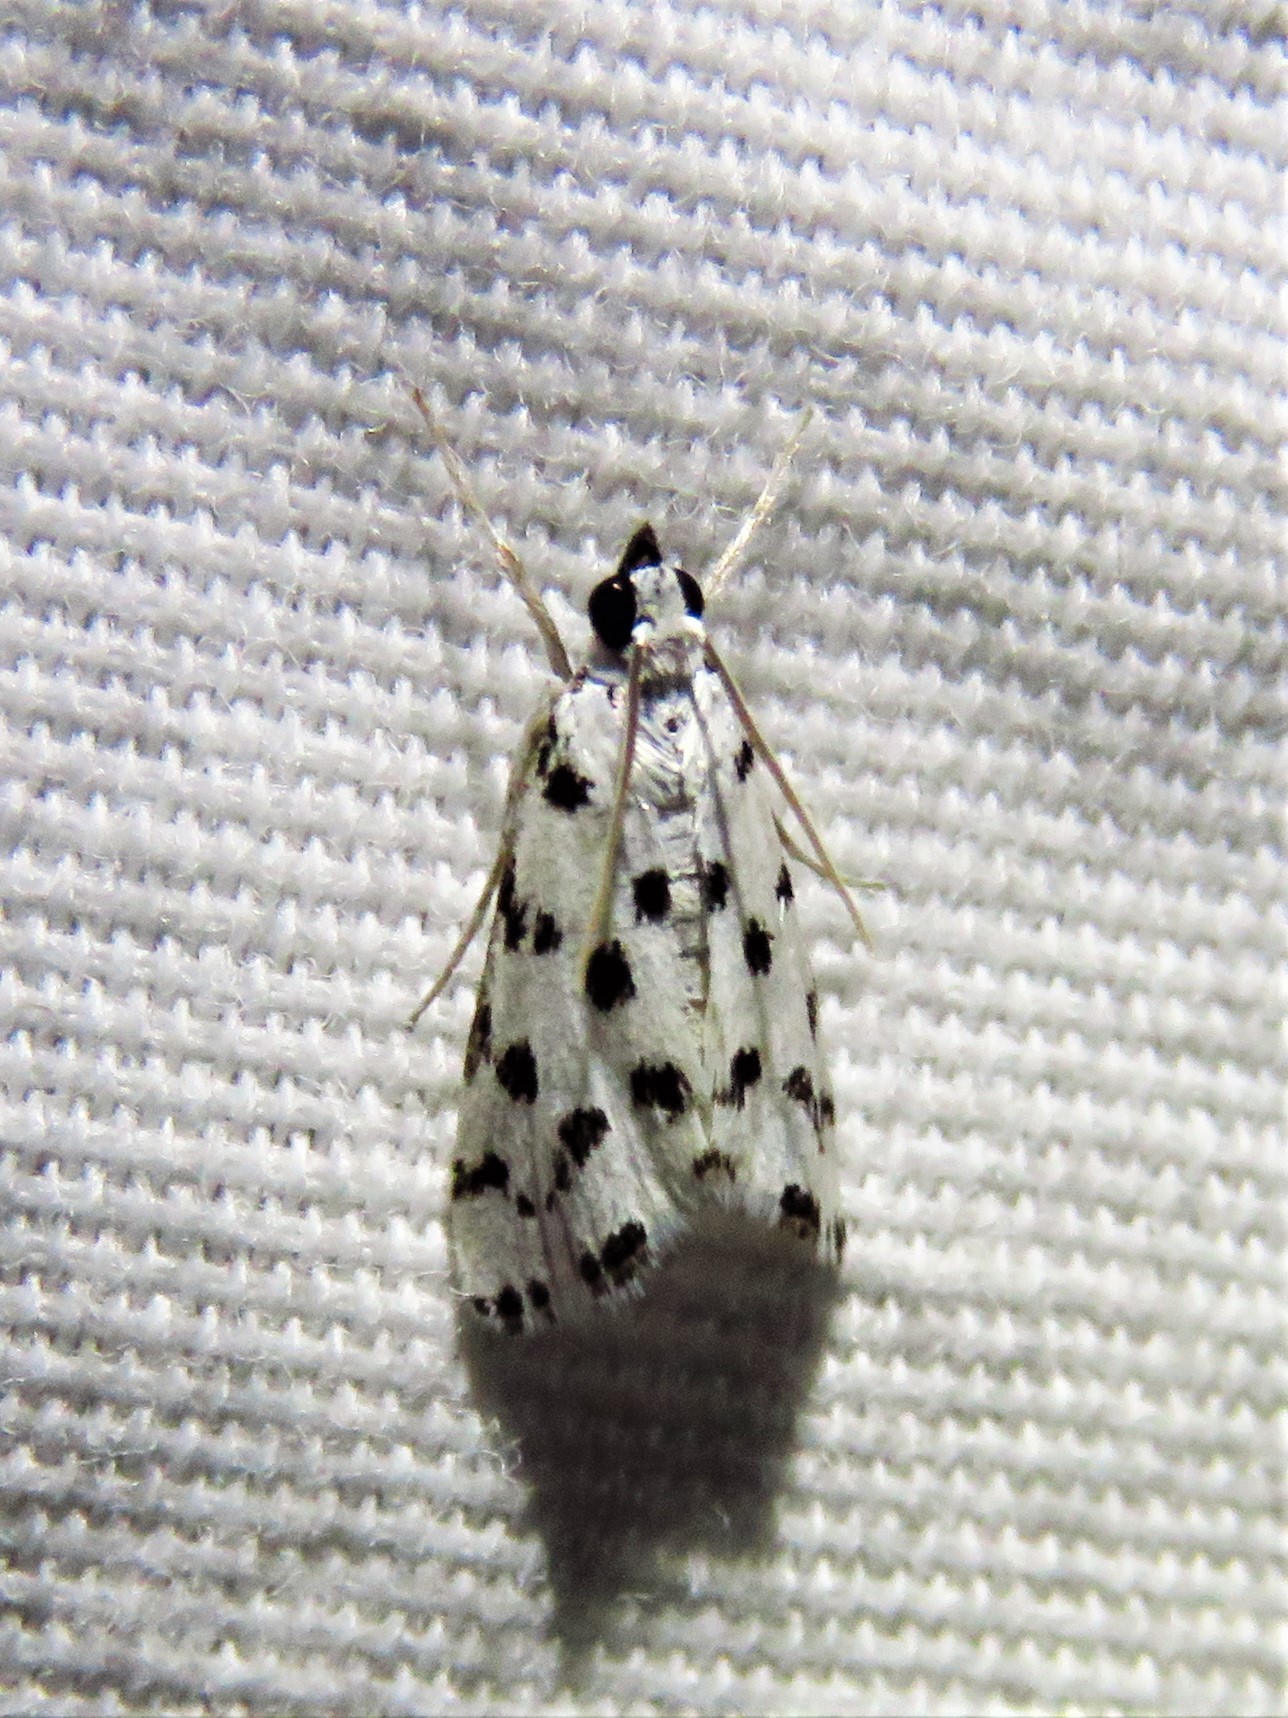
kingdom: Animalia
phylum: Arthropoda
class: Insecta
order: Lepidoptera
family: Crambidae
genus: Eustixia
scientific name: Eustixia pupula
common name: American cabbage pearl
